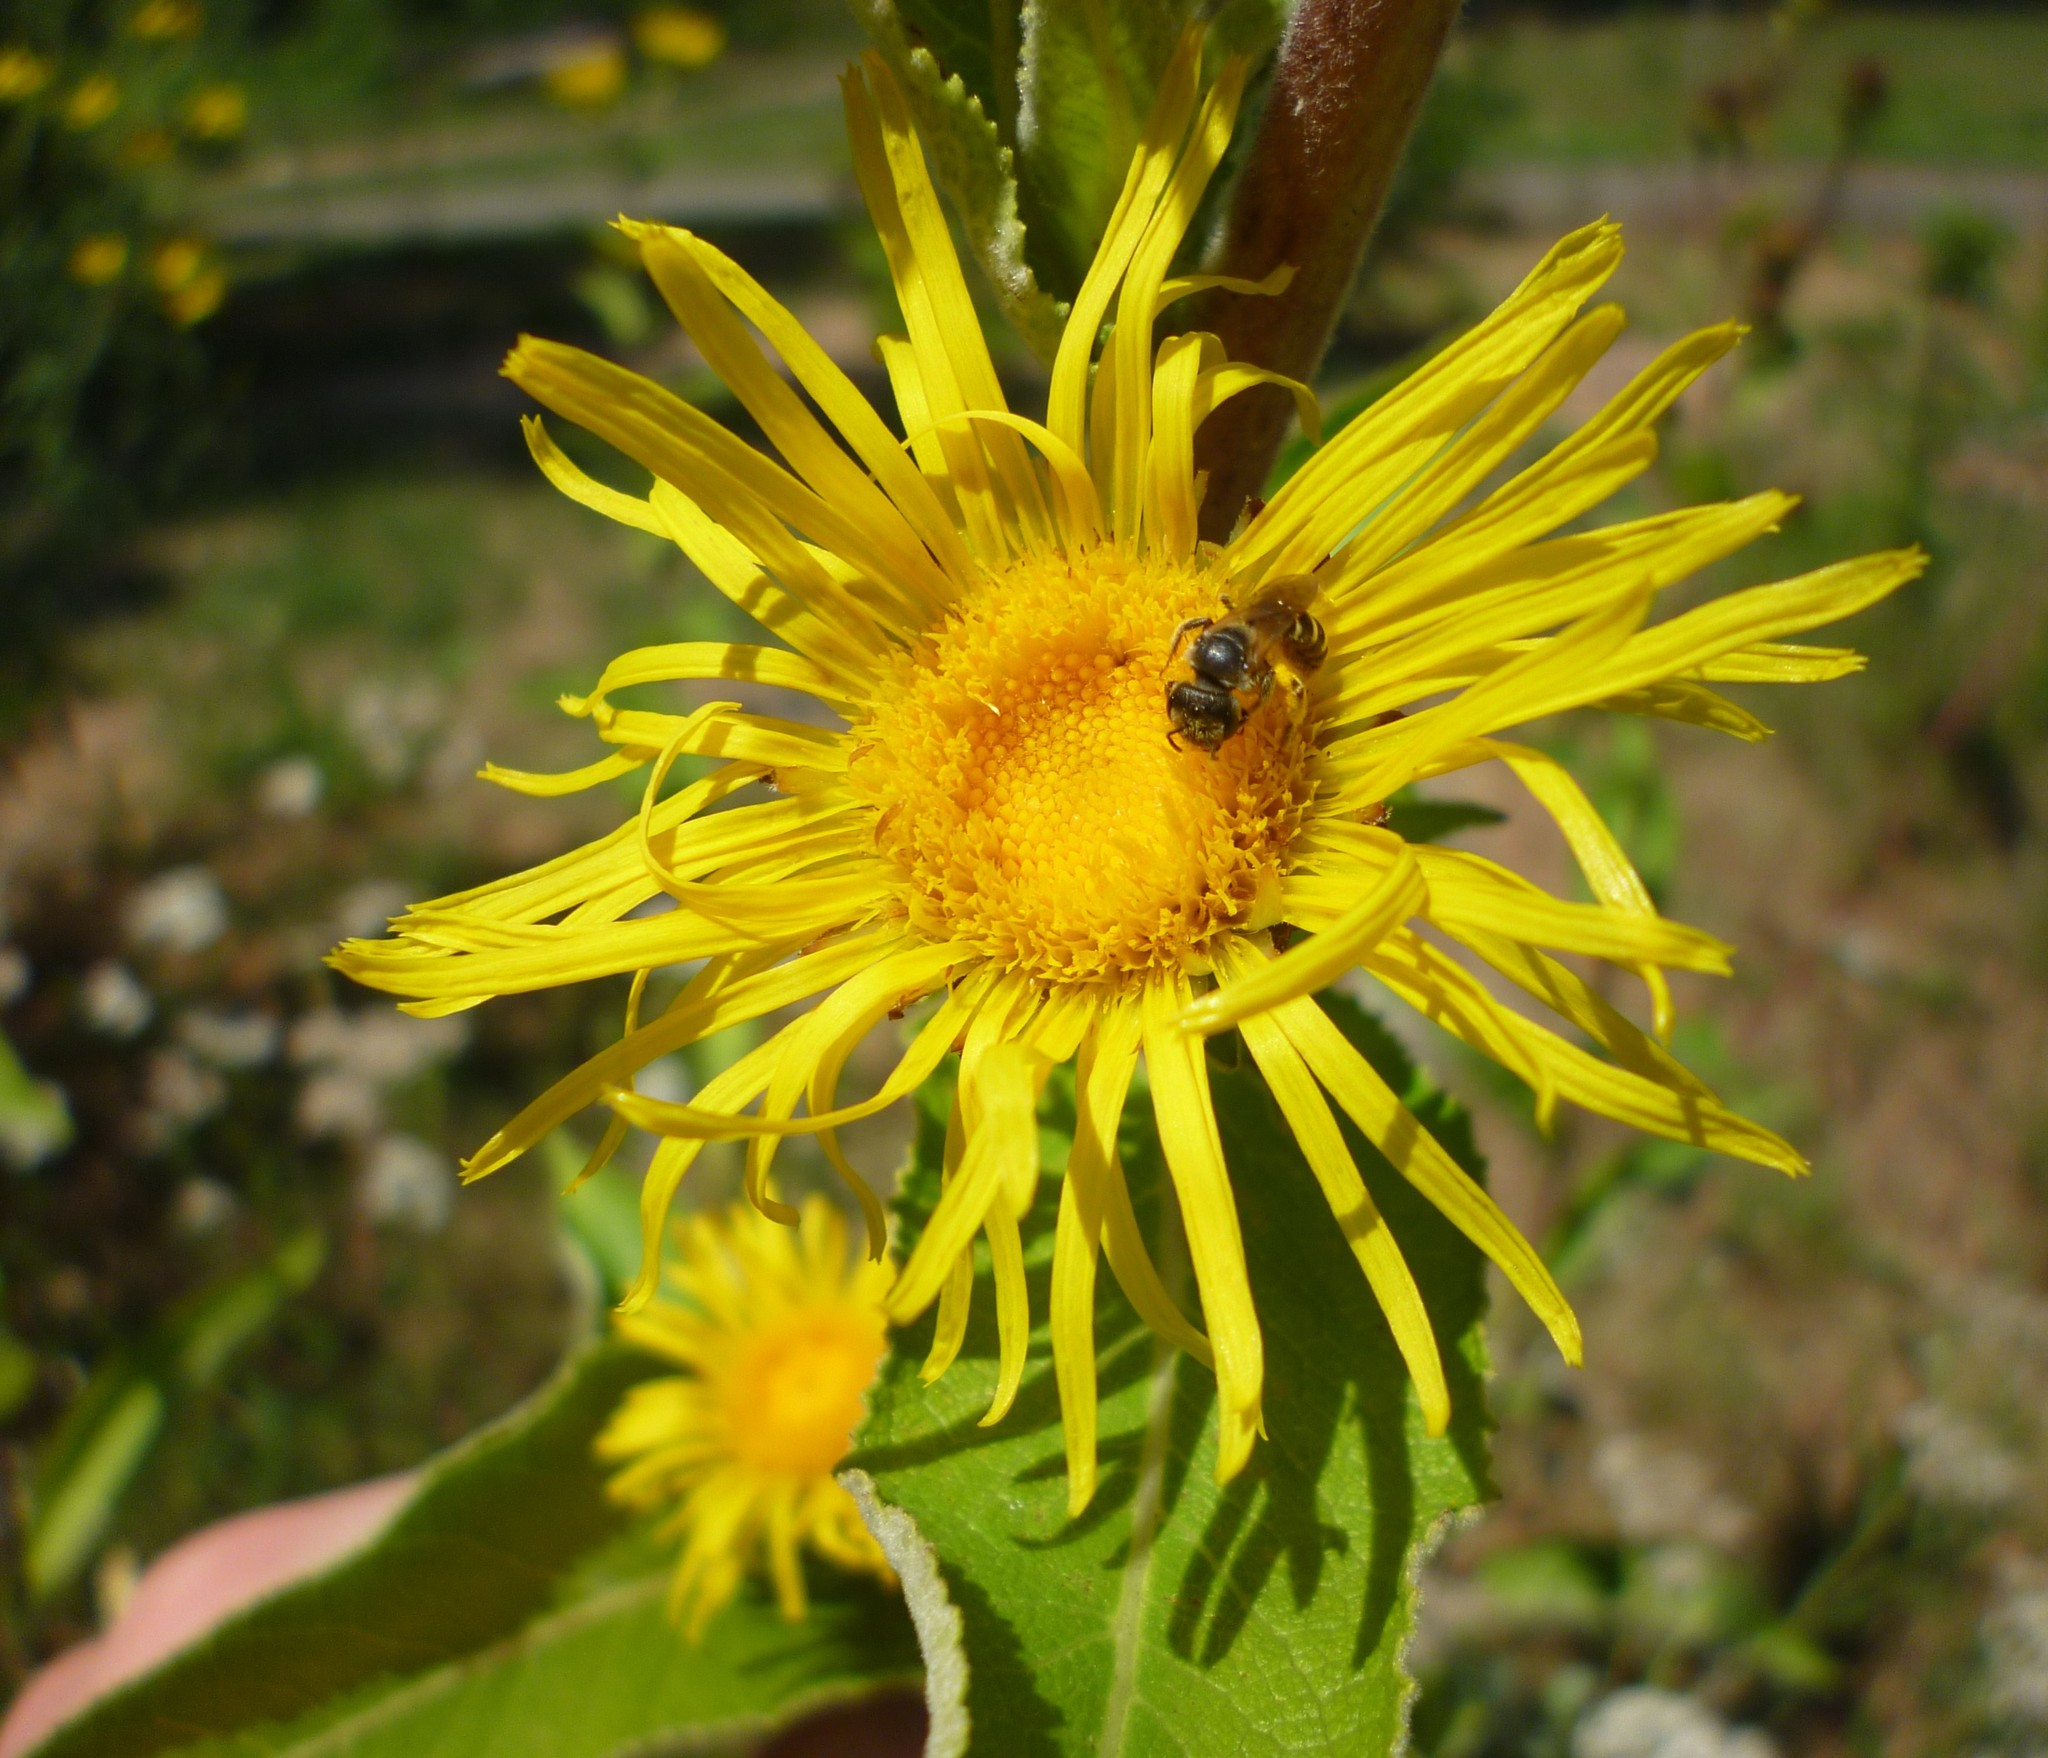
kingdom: Plantae
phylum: Tracheophyta
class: Magnoliopsida
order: Asterales
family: Asteraceae
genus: Inula
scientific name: Inula helenium
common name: Elecampane
